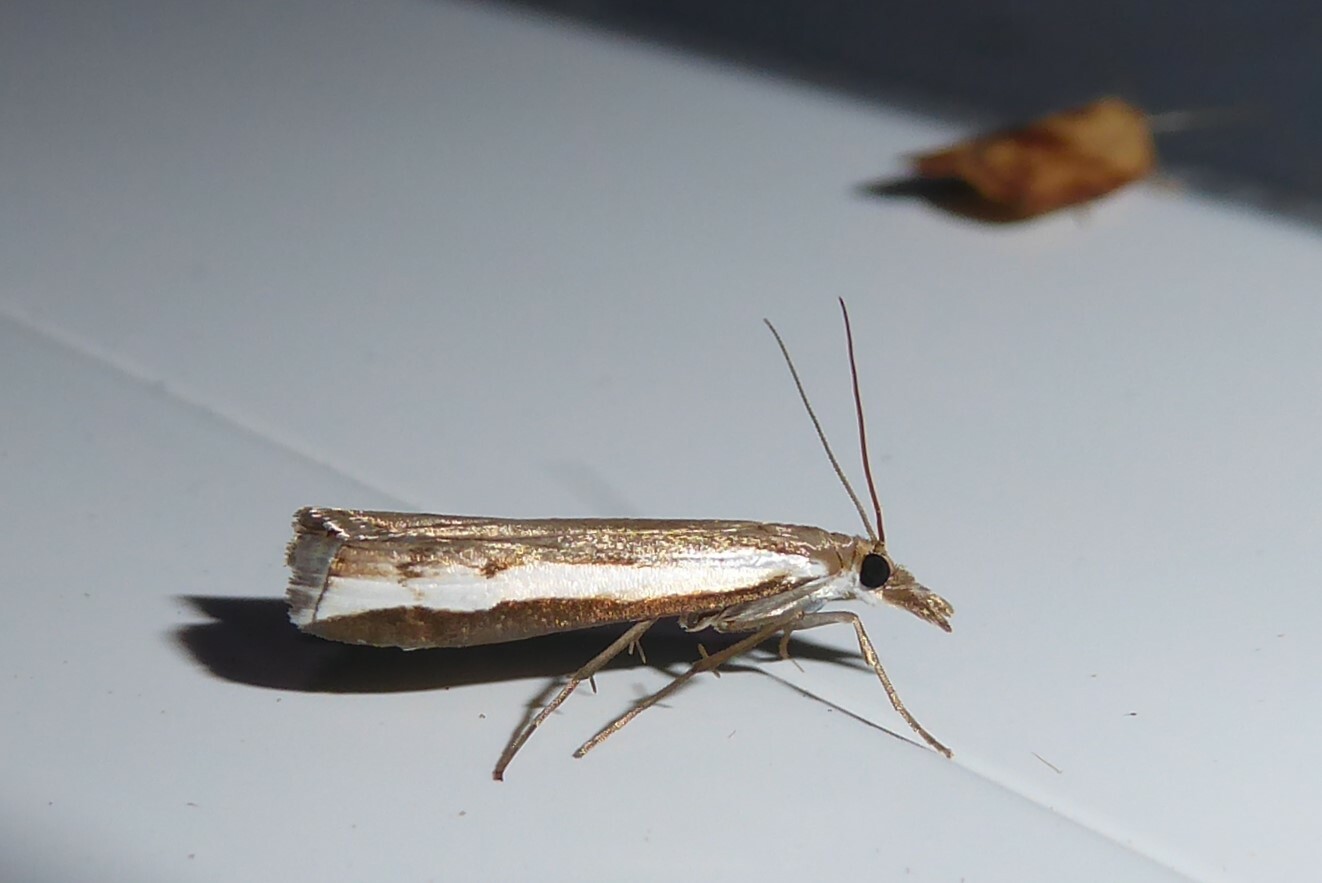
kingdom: Animalia
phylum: Arthropoda
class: Insecta
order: Lepidoptera
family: Crambidae
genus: Orocrambus
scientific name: Orocrambus flexuosellus
